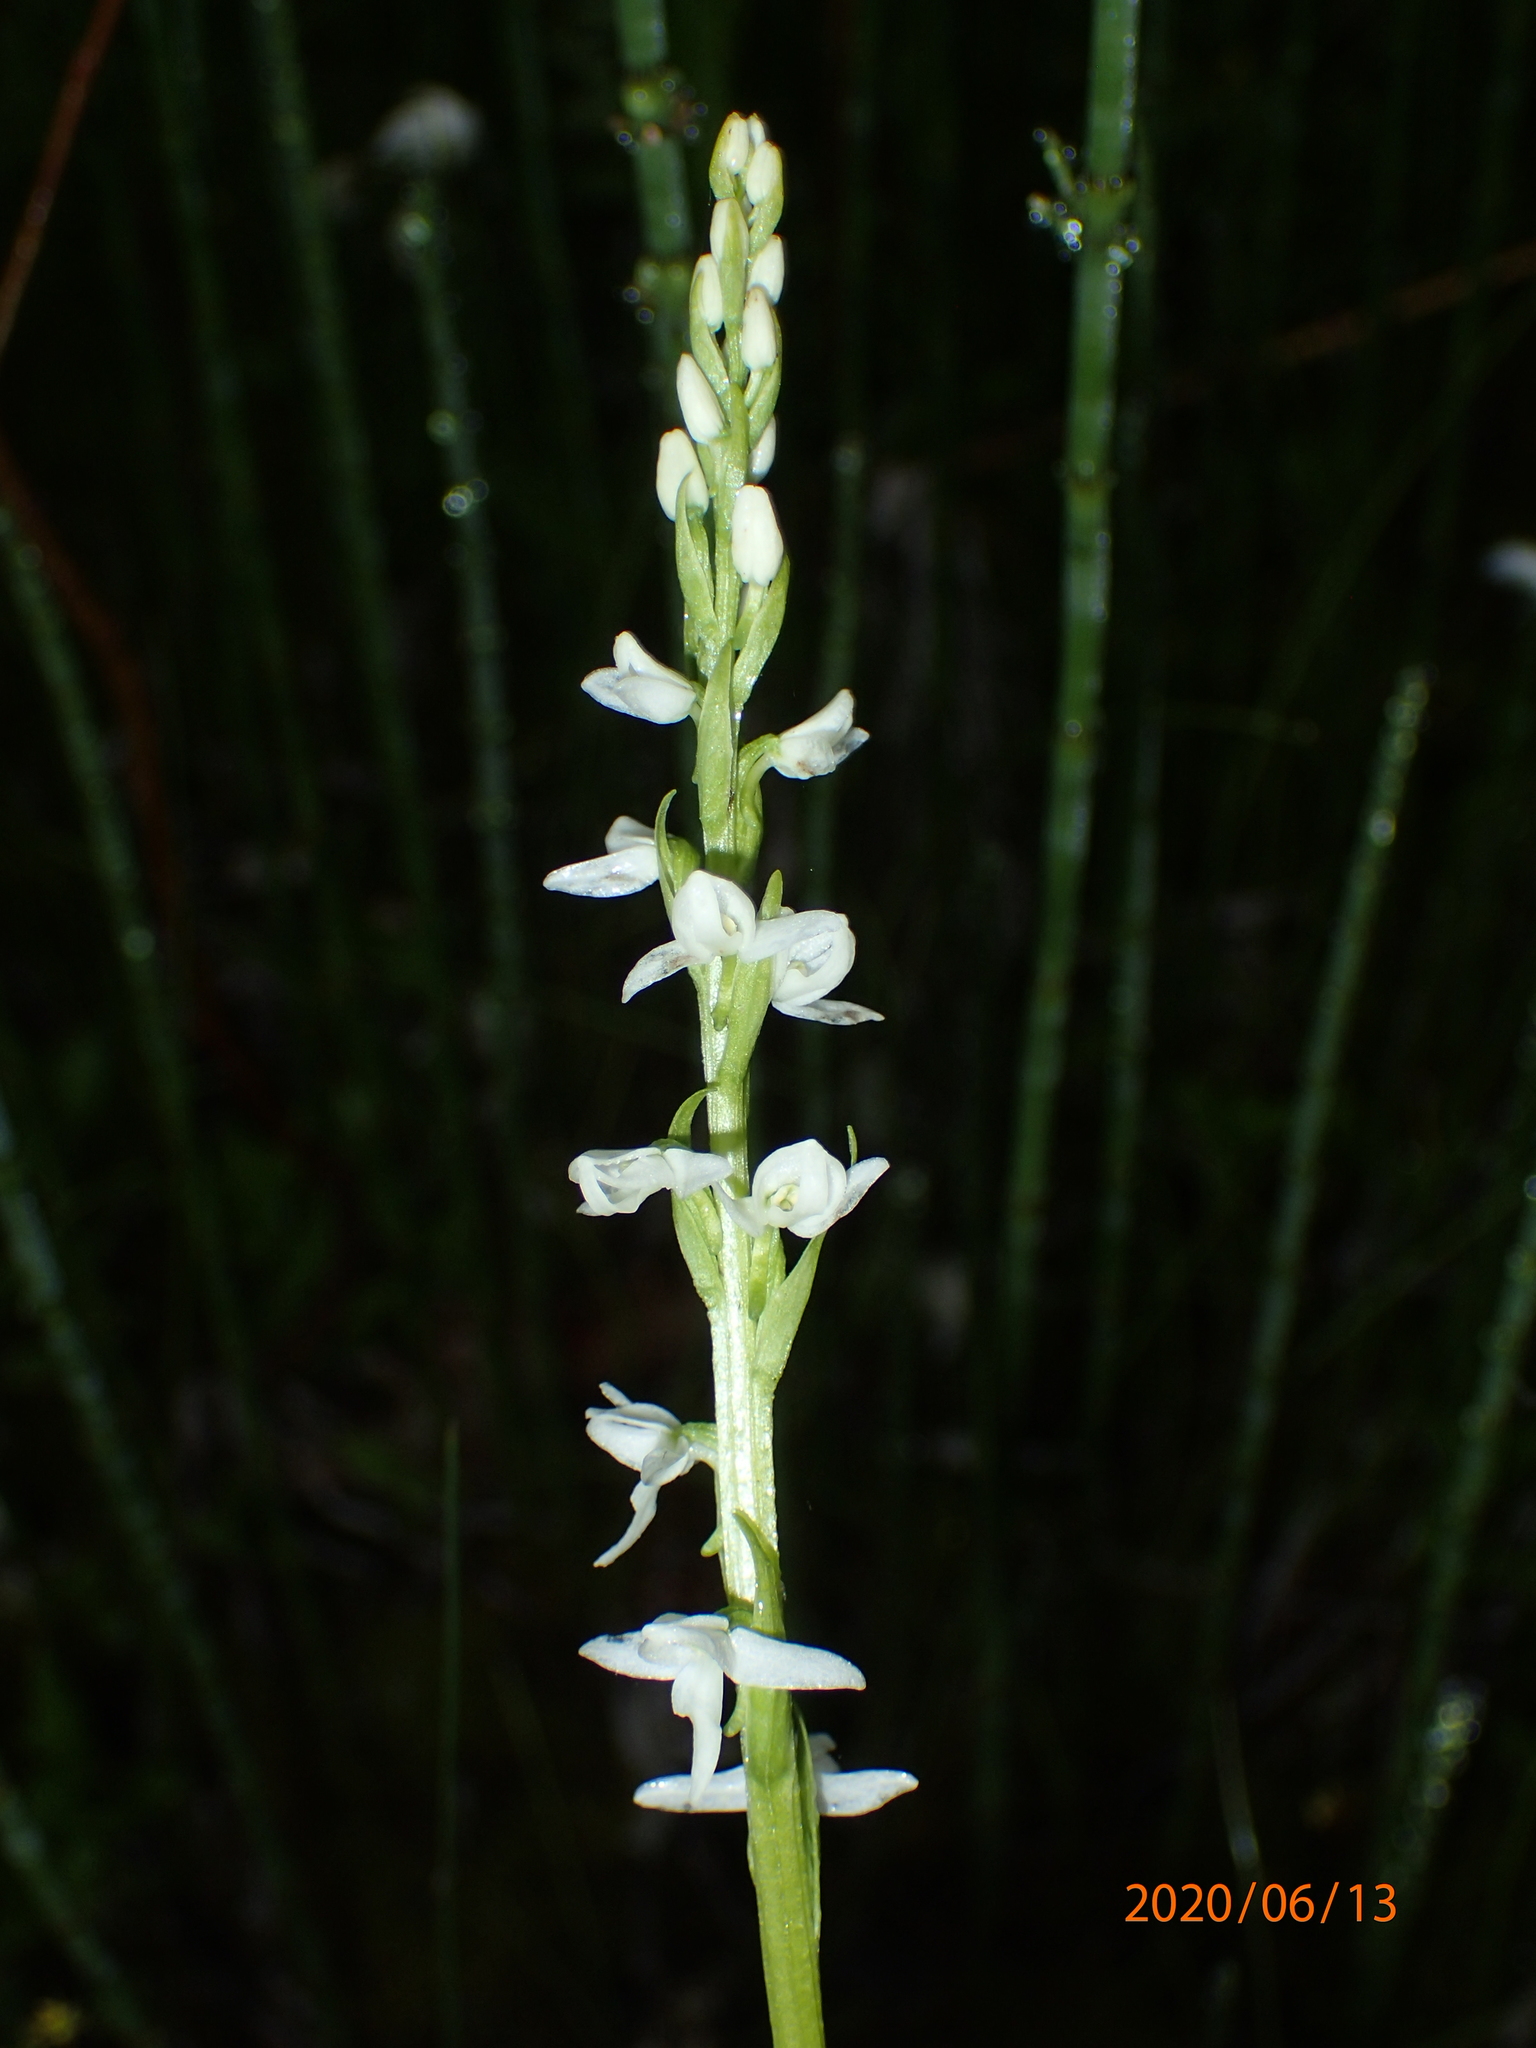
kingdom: Plantae
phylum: Tracheophyta
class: Liliopsida
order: Asparagales
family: Orchidaceae
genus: Platanthera
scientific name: Platanthera dilatata
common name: Bog candles
